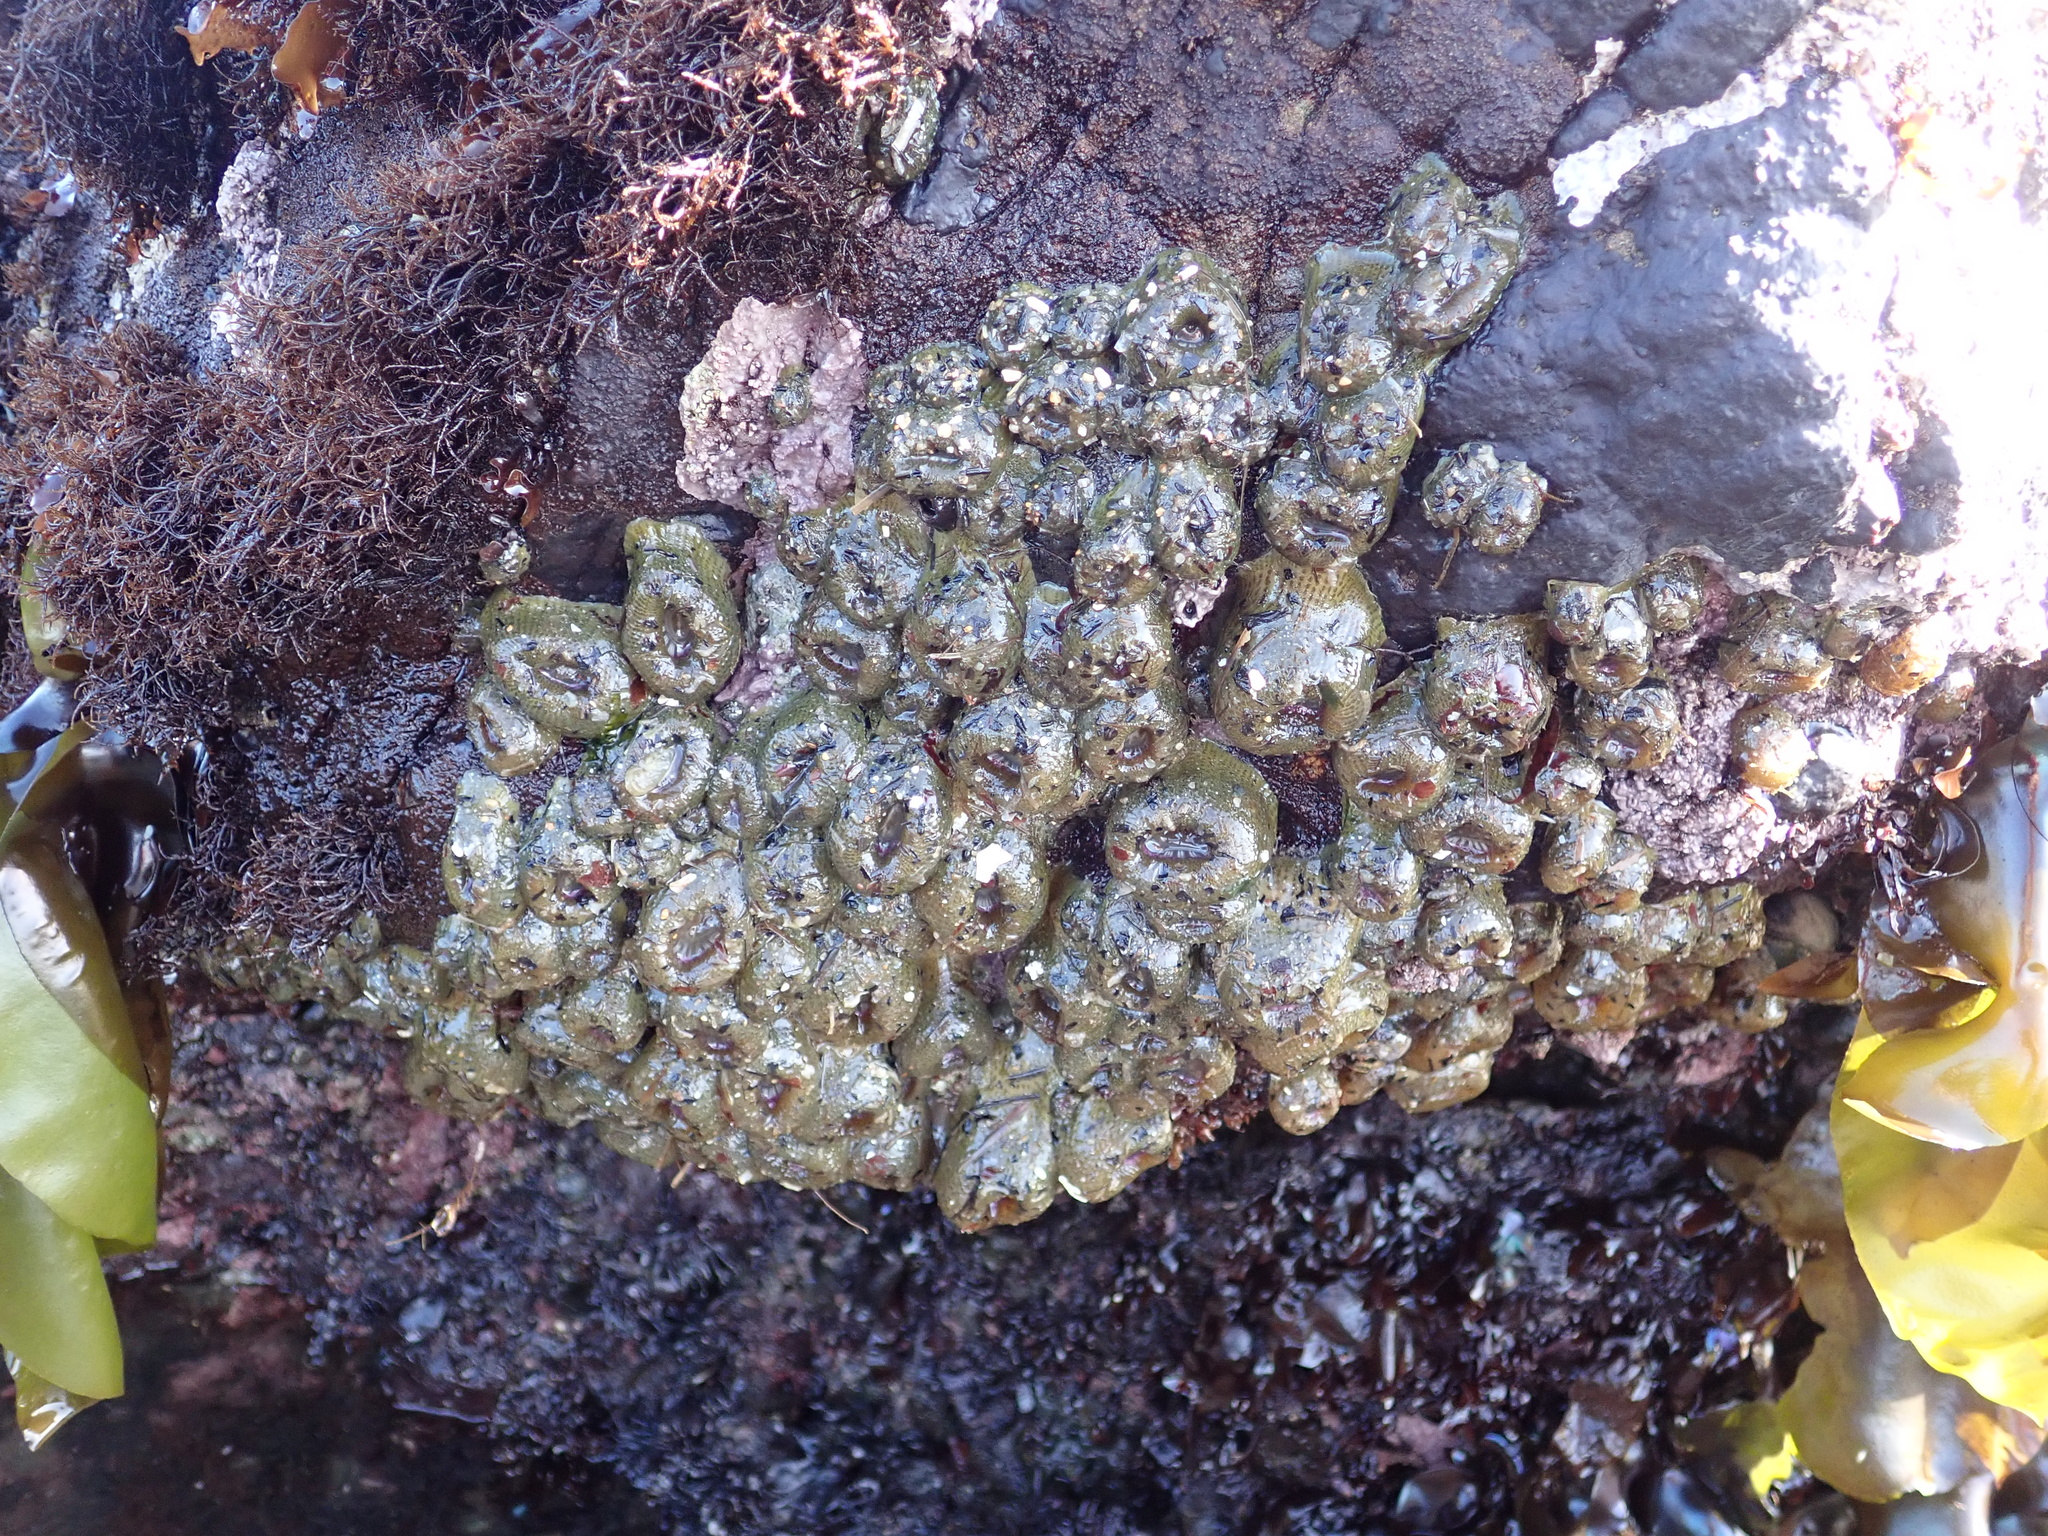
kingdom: Animalia
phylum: Cnidaria
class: Anthozoa
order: Actiniaria
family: Actiniidae
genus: Anthopleura
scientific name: Anthopleura elegantissima
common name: Clonal anemone
